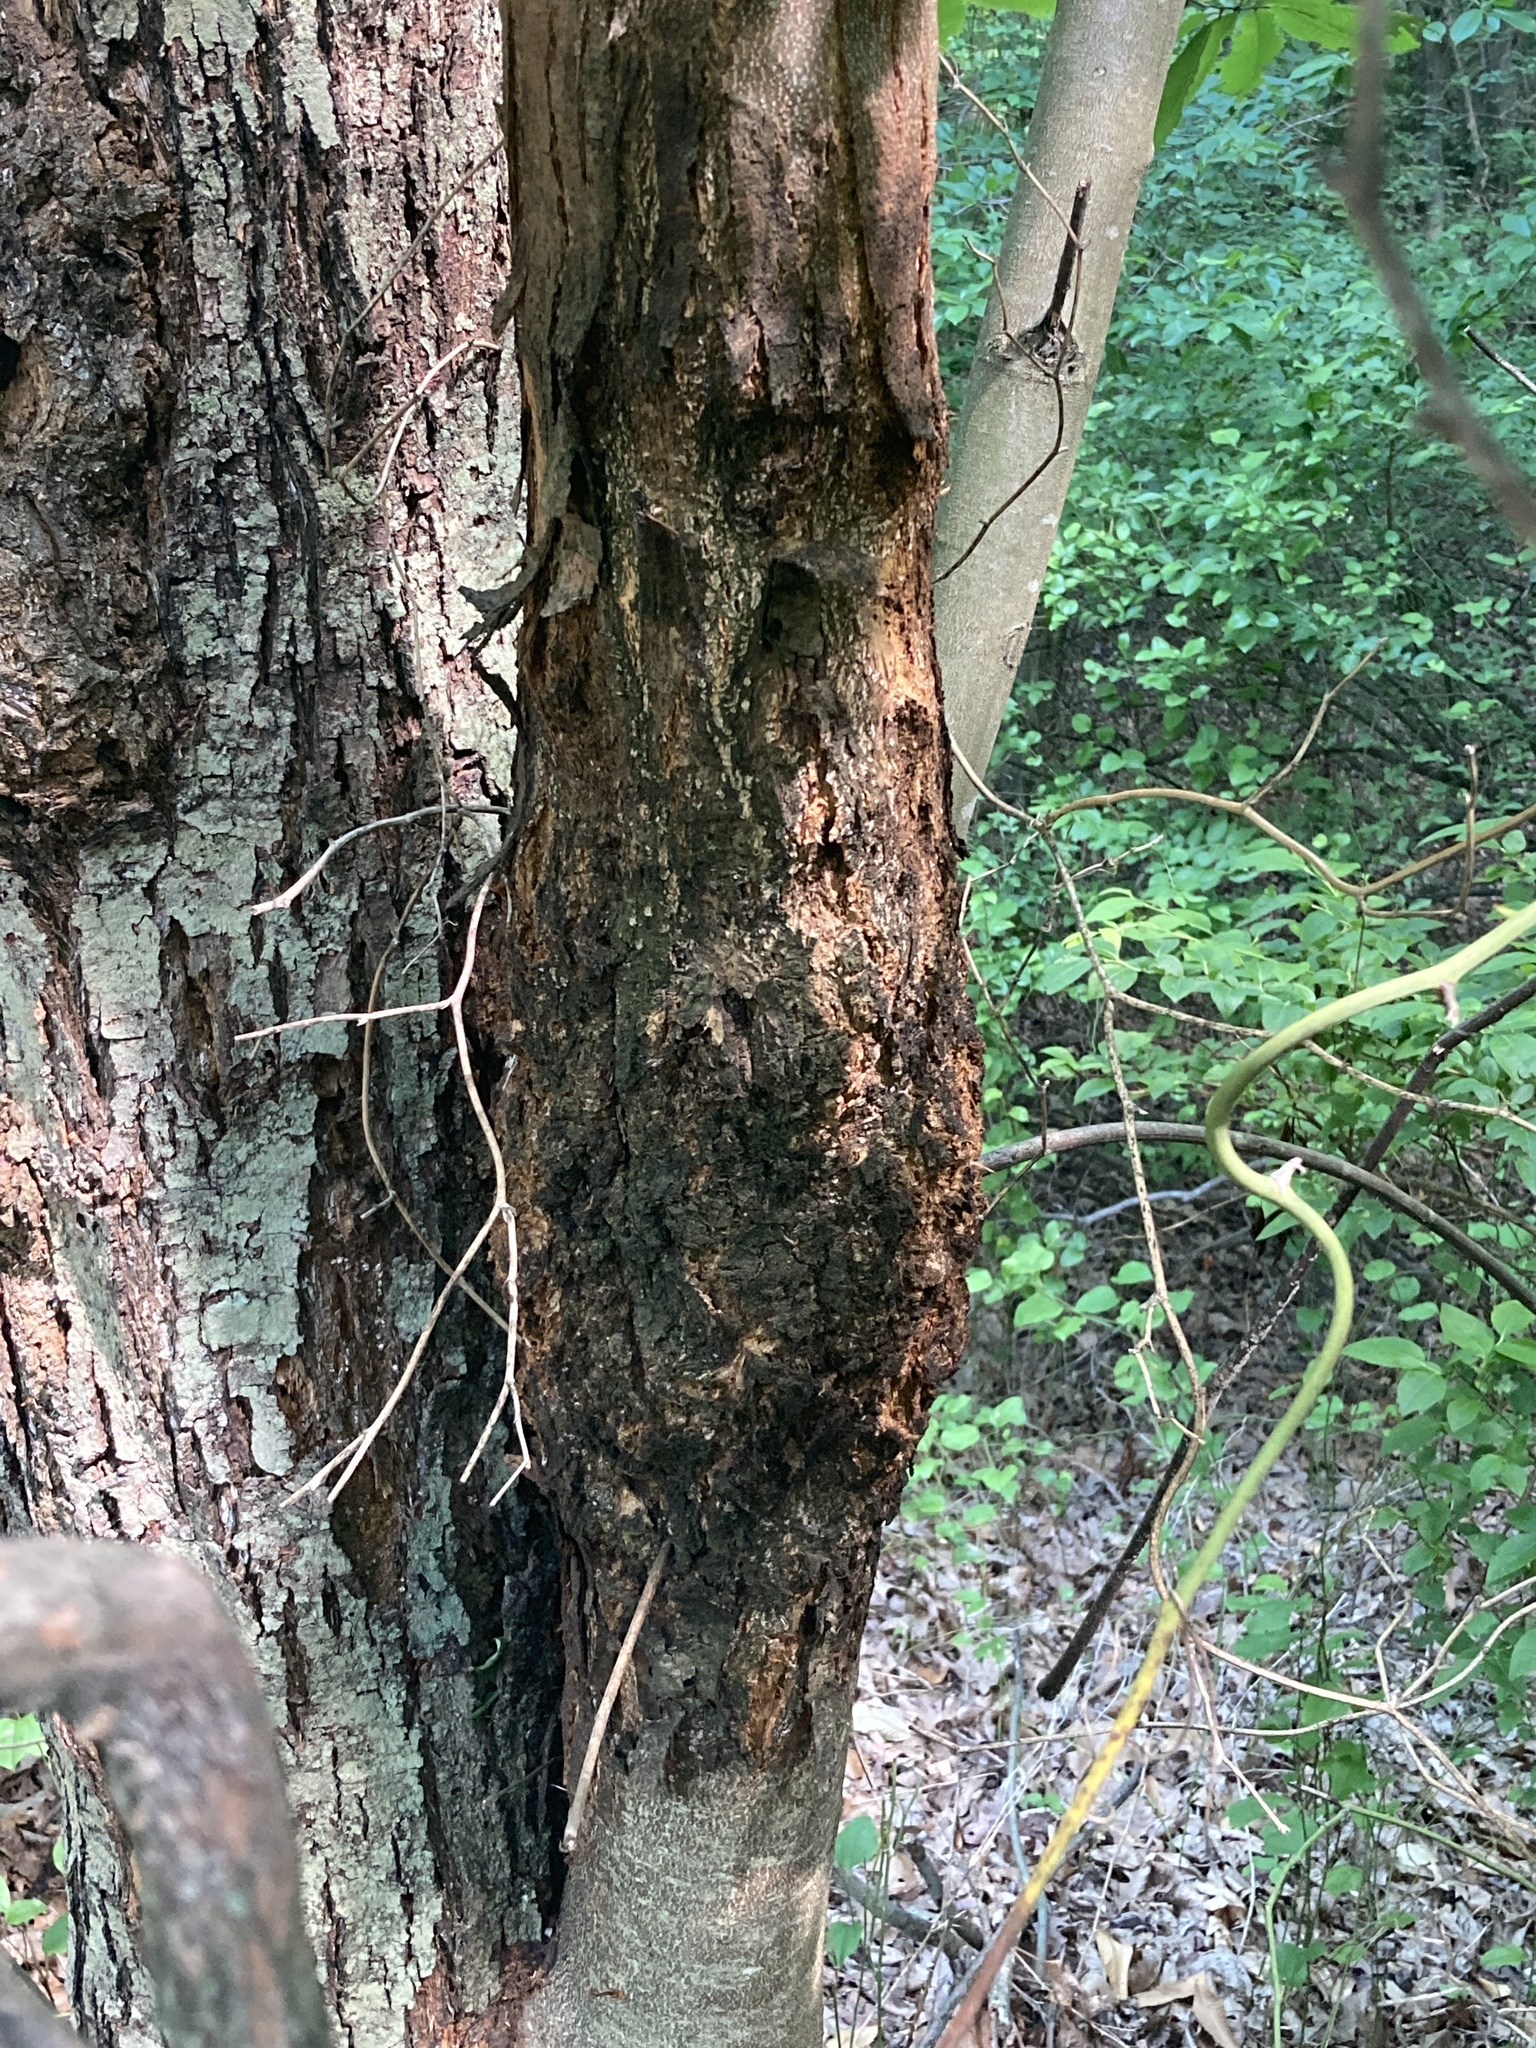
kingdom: Plantae
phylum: Tracheophyta
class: Magnoliopsida
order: Fagales
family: Fagaceae
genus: Castanea
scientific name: Castanea dentata
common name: American chestnut
